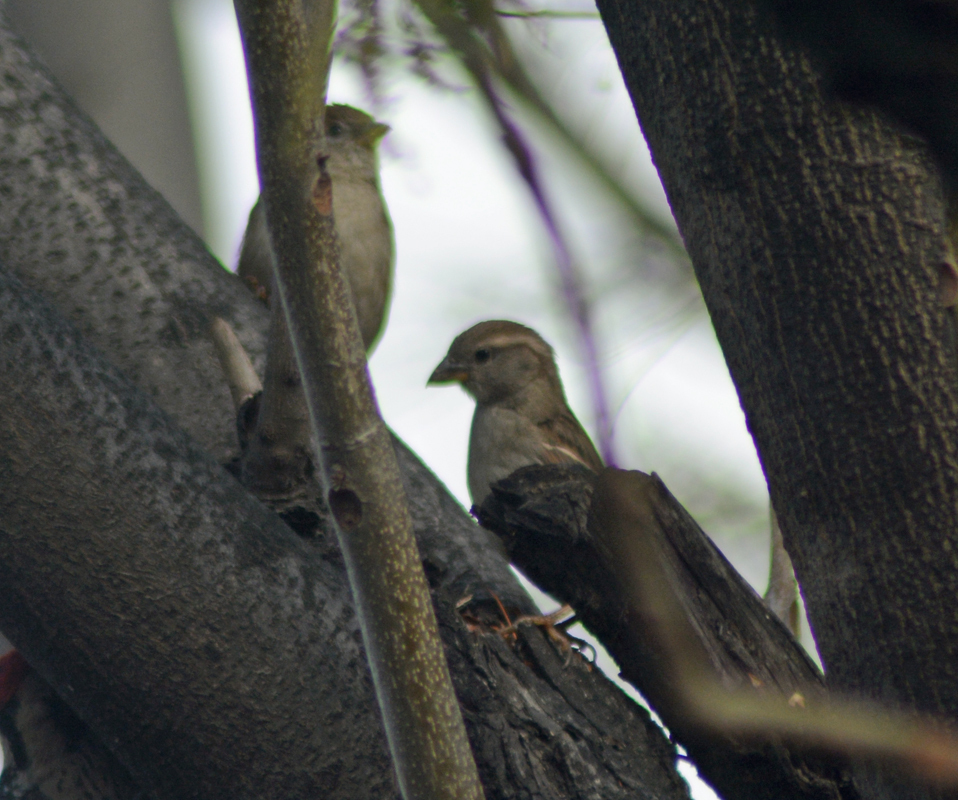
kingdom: Animalia
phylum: Chordata
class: Aves
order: Passeriformes
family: Passeridae
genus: Passer
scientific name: Passer domesticus
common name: House sparrow
